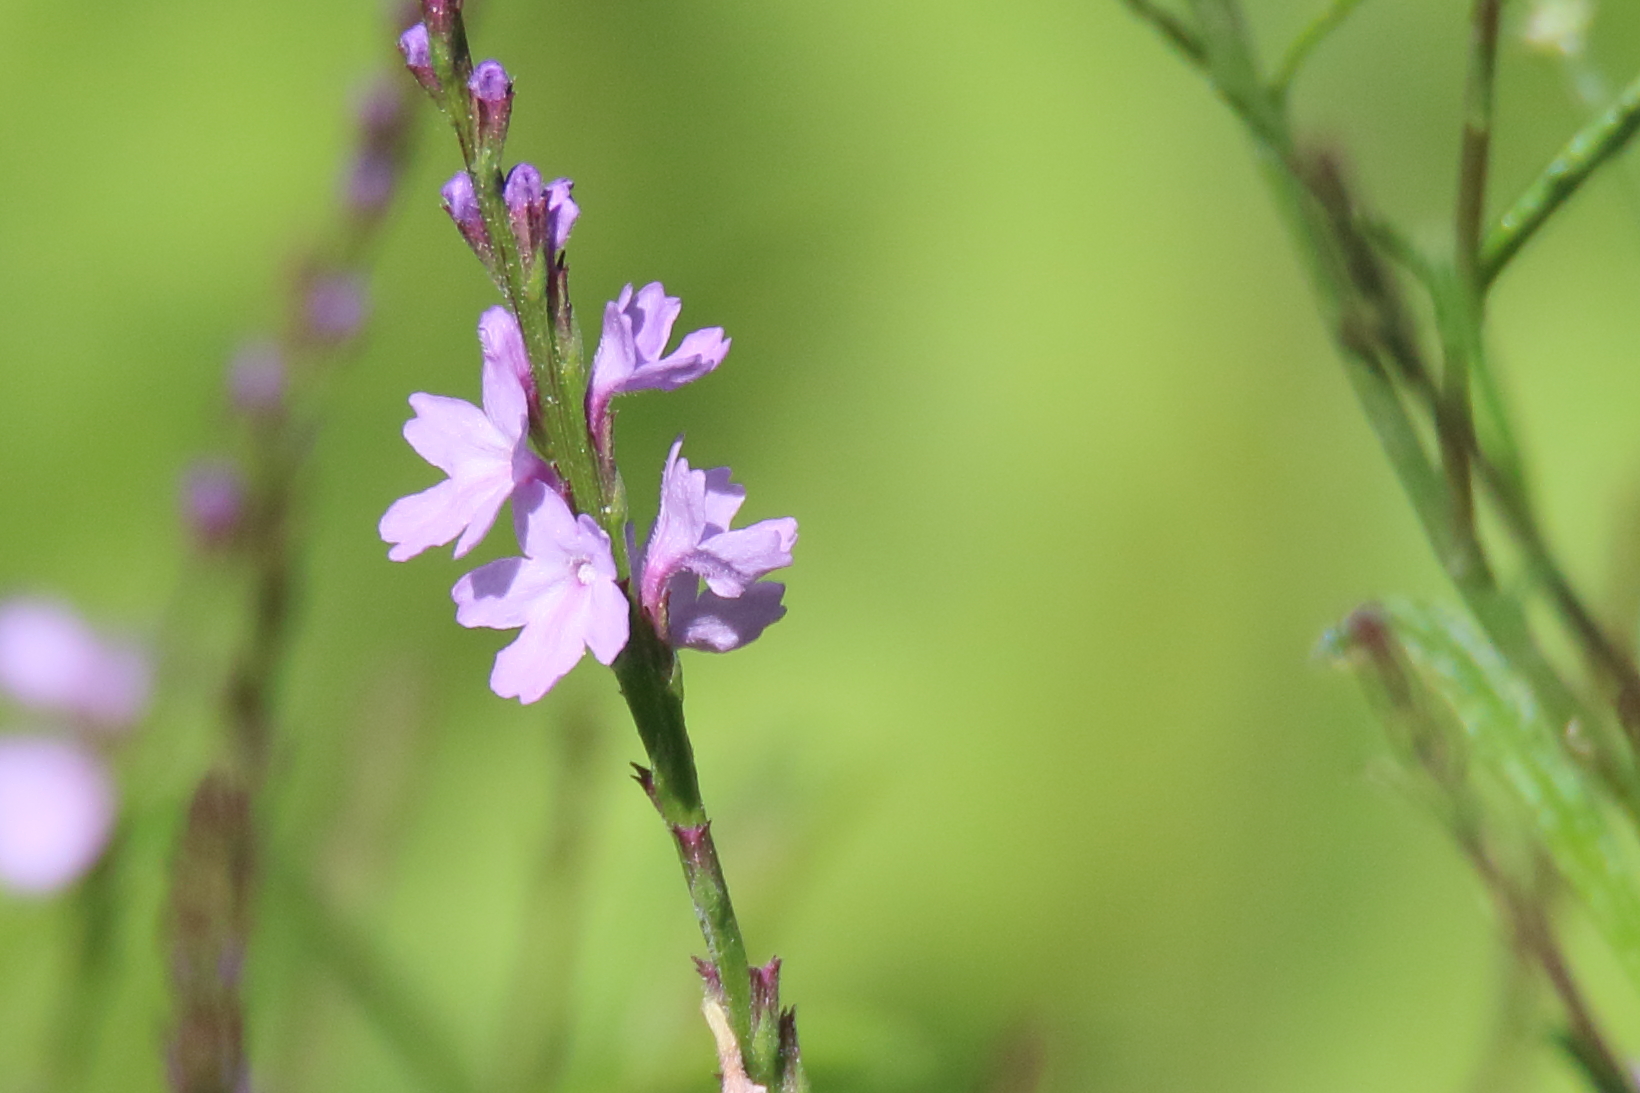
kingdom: Plantae
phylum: Tracheophyta
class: Magnoliopsida
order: Lamiales
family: Verbenaceae
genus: Verbena
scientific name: Verbena halei
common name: Texas vervain
